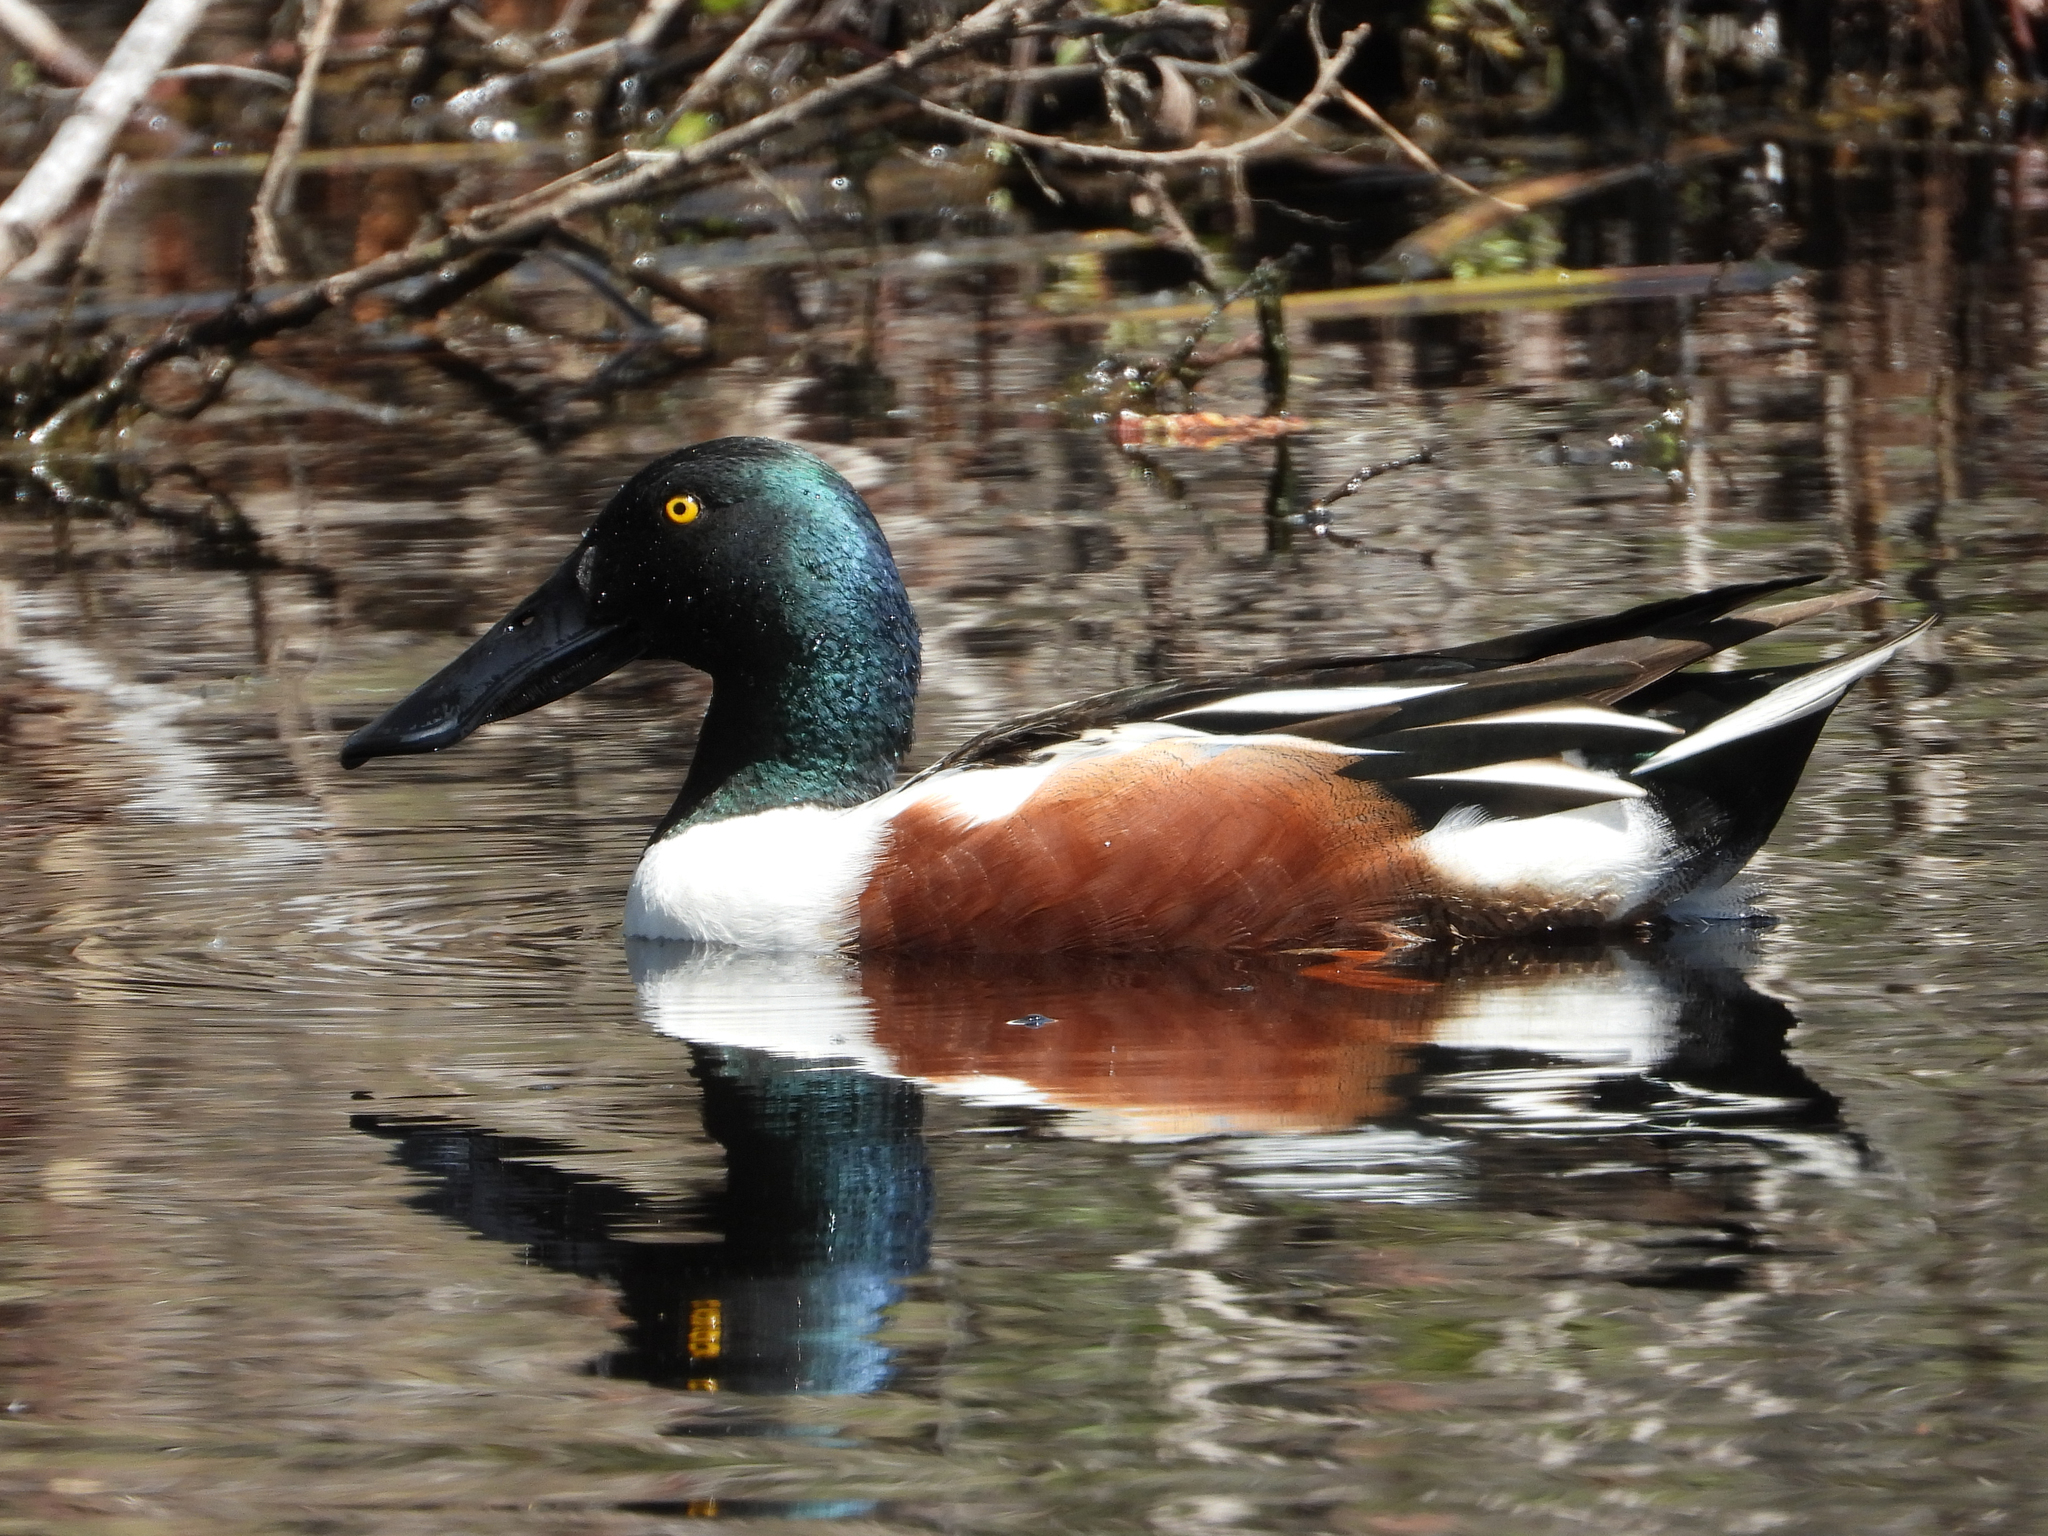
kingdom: Animalia
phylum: Chordata
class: Aves
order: Anseriformes
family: Anatidae
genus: Spatula
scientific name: Spatula clypeata
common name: Northern shoveler
